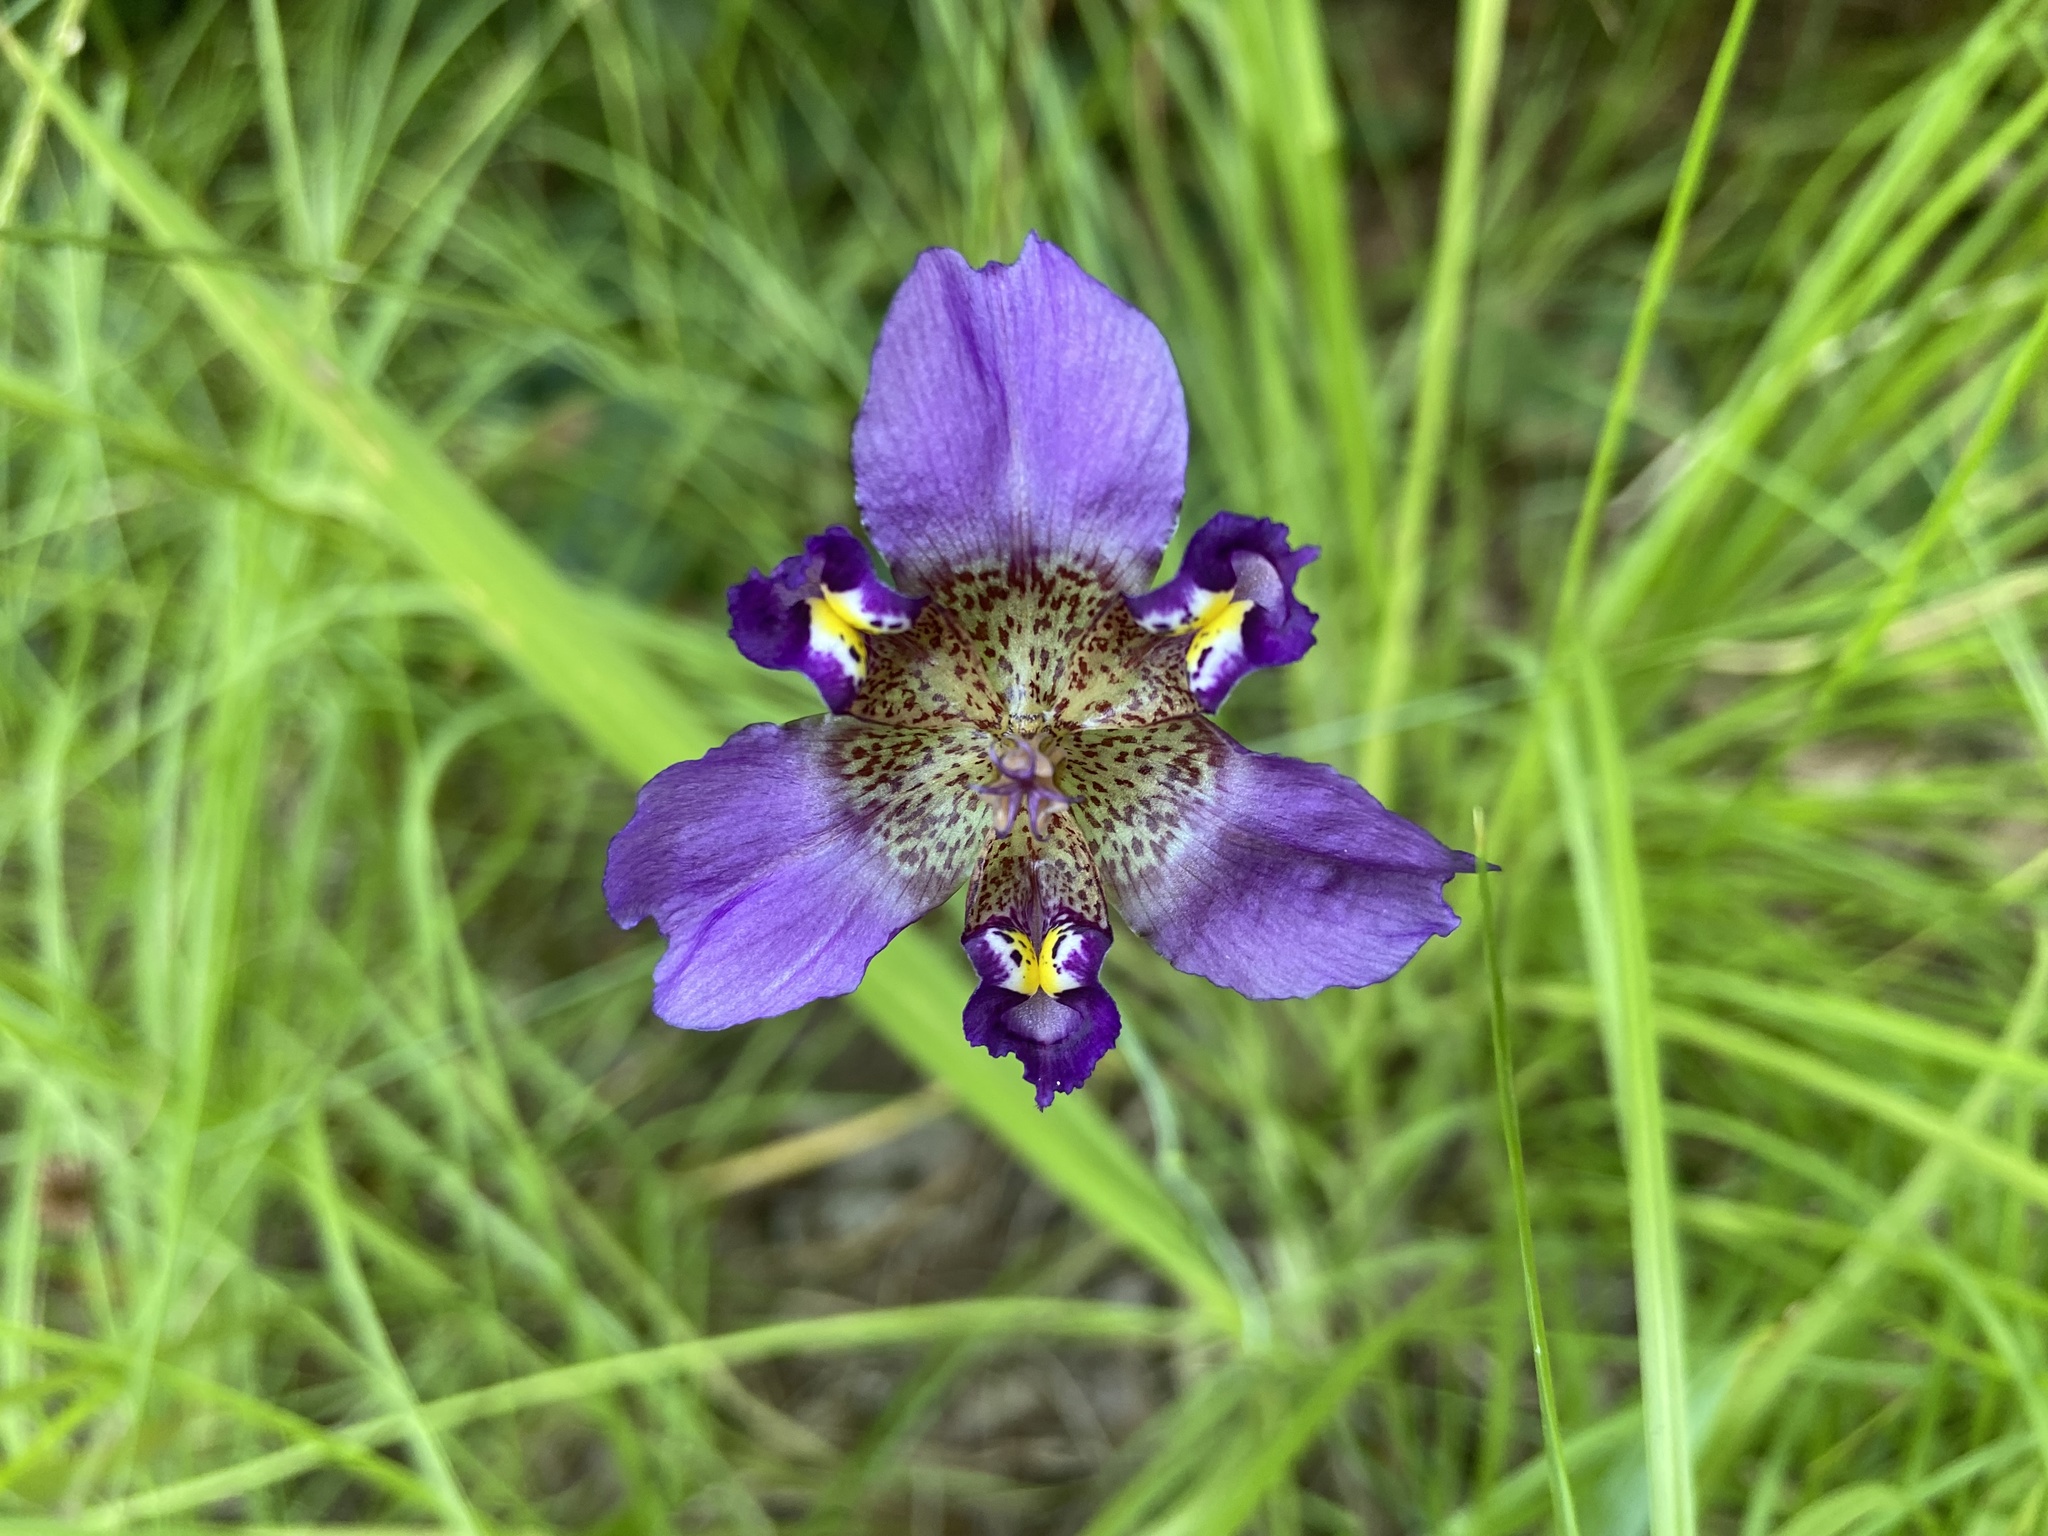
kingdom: Plantae
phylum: Tracheophyta
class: Liliopsida
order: Asparagales
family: Iridaceae
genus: Alophia
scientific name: Alophia drummondii
